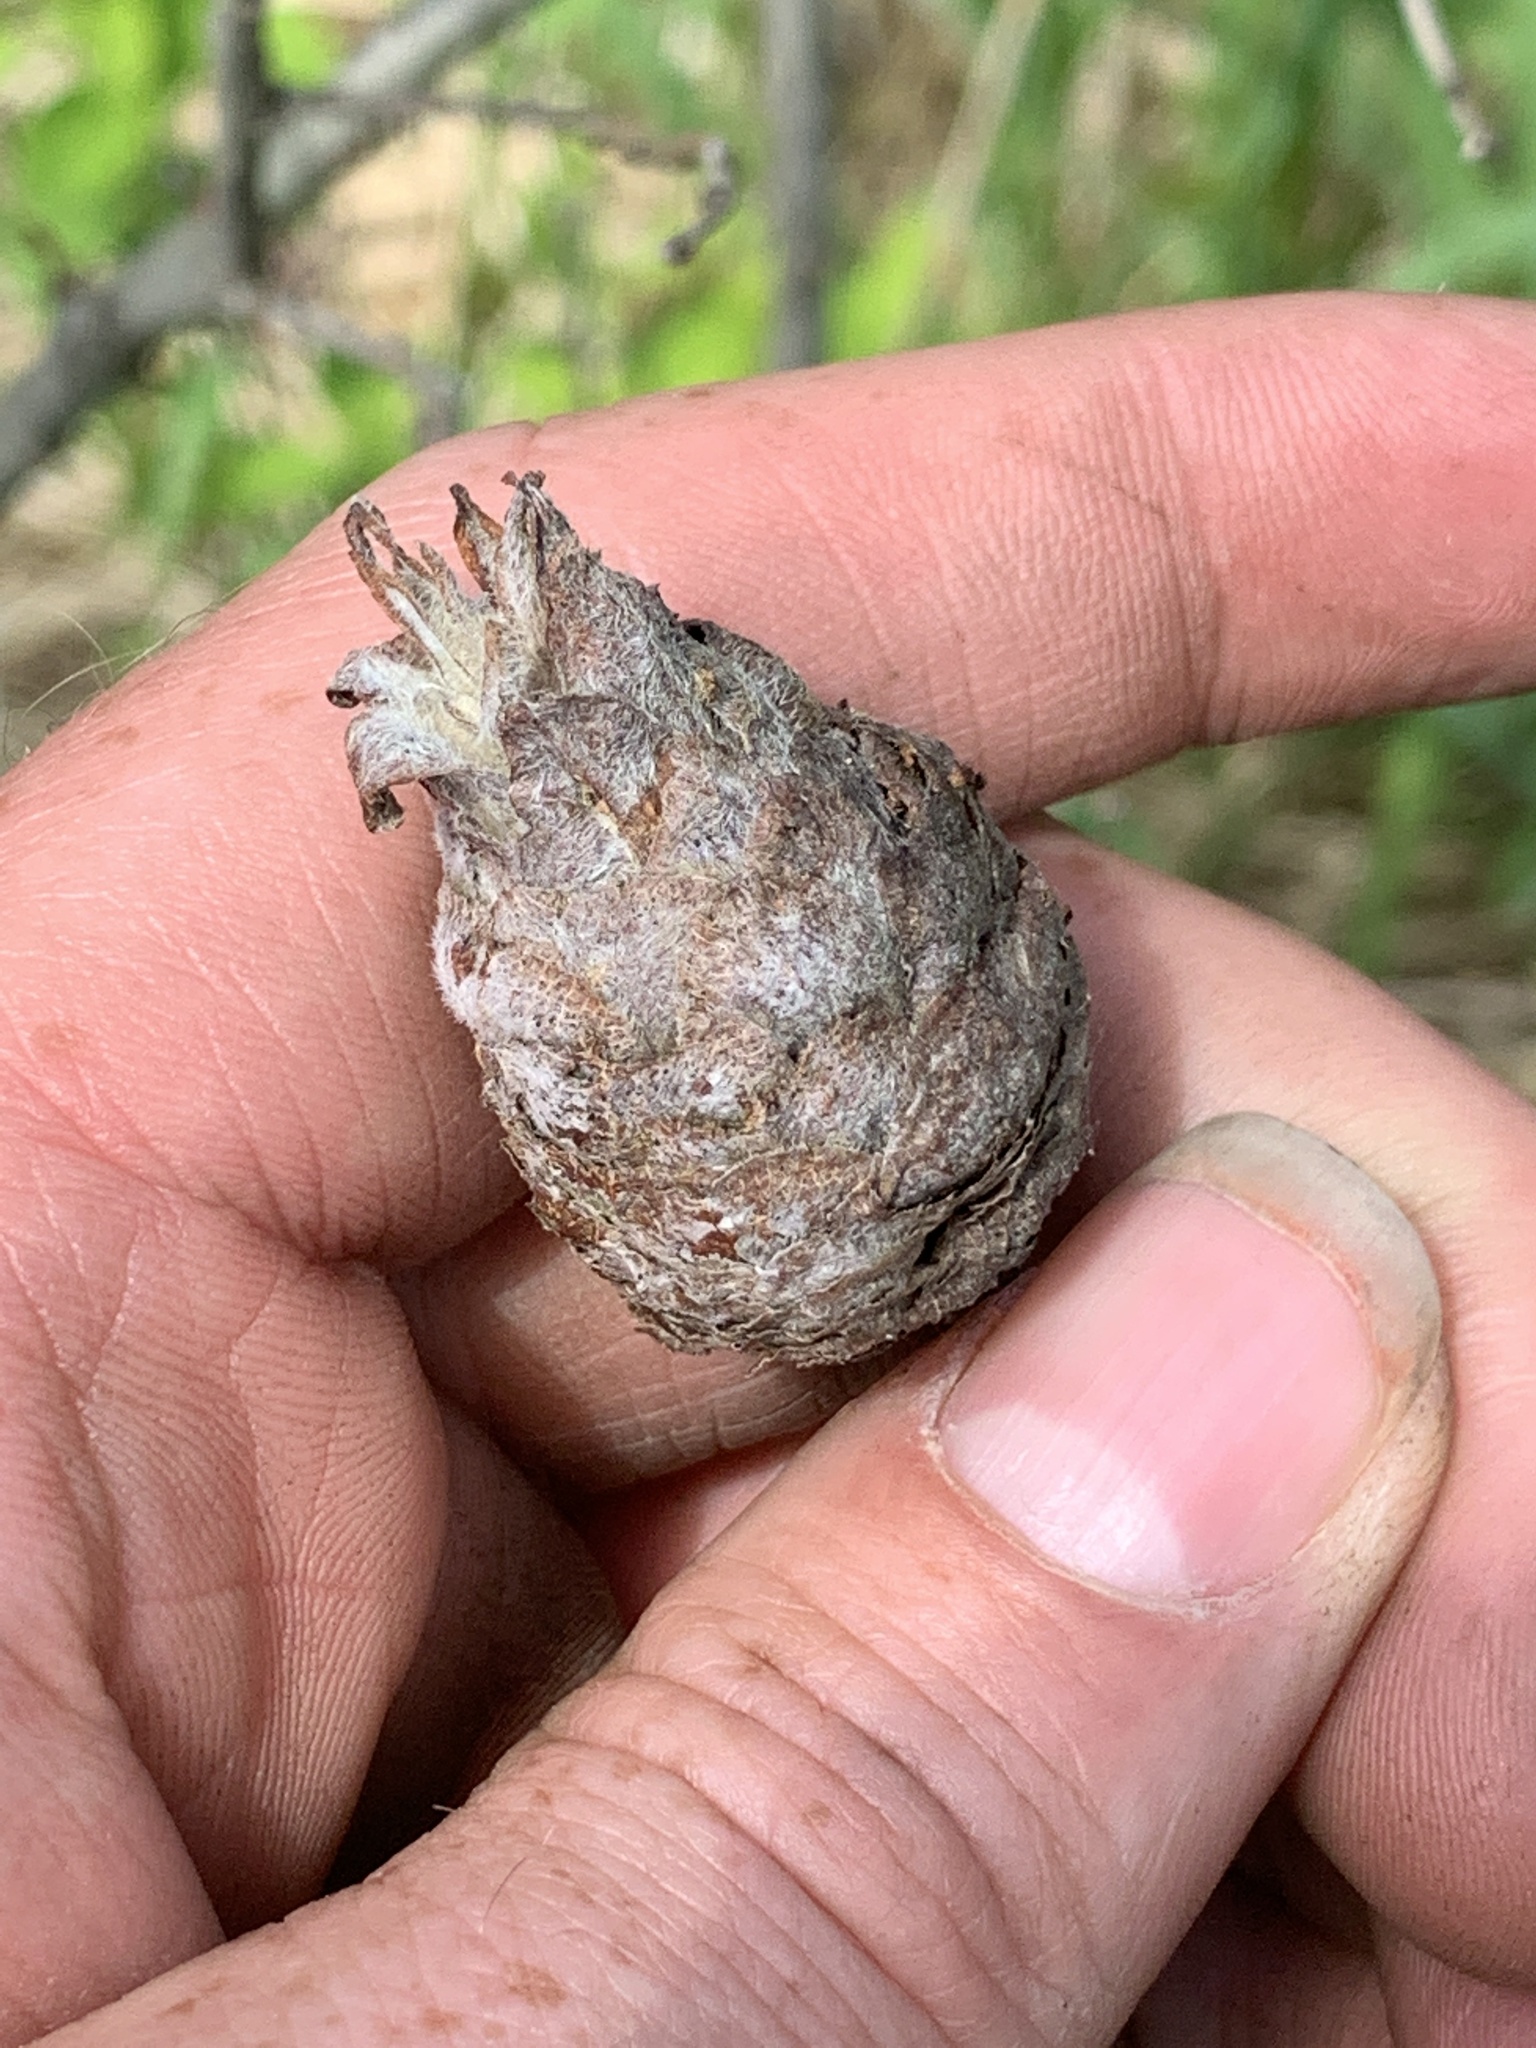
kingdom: Animalia
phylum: Arthropoda
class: Insecta
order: Diptera
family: Cecidomyiidae
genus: Rabdophaga
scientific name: Rabdophaga strobiloides
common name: Willow pinecone gall midge
